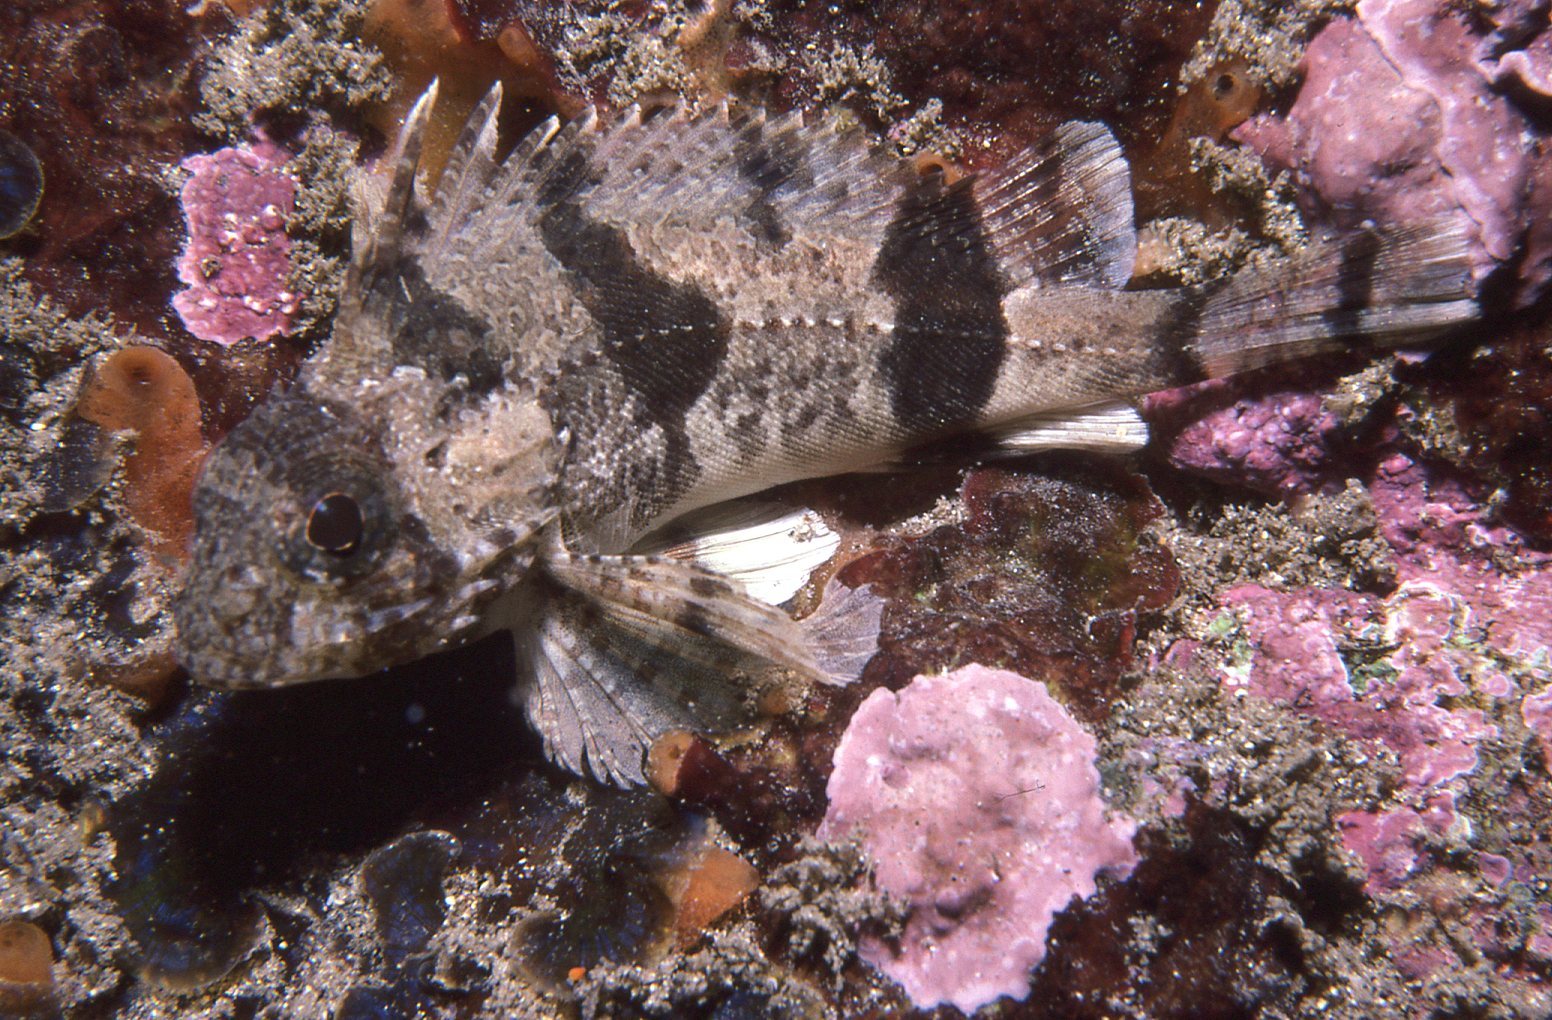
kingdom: Animalia
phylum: Chordata
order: Scorpaeniformes
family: Tetrarogidae
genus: Centropogon
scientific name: Centropogon australis
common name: Fortescue
